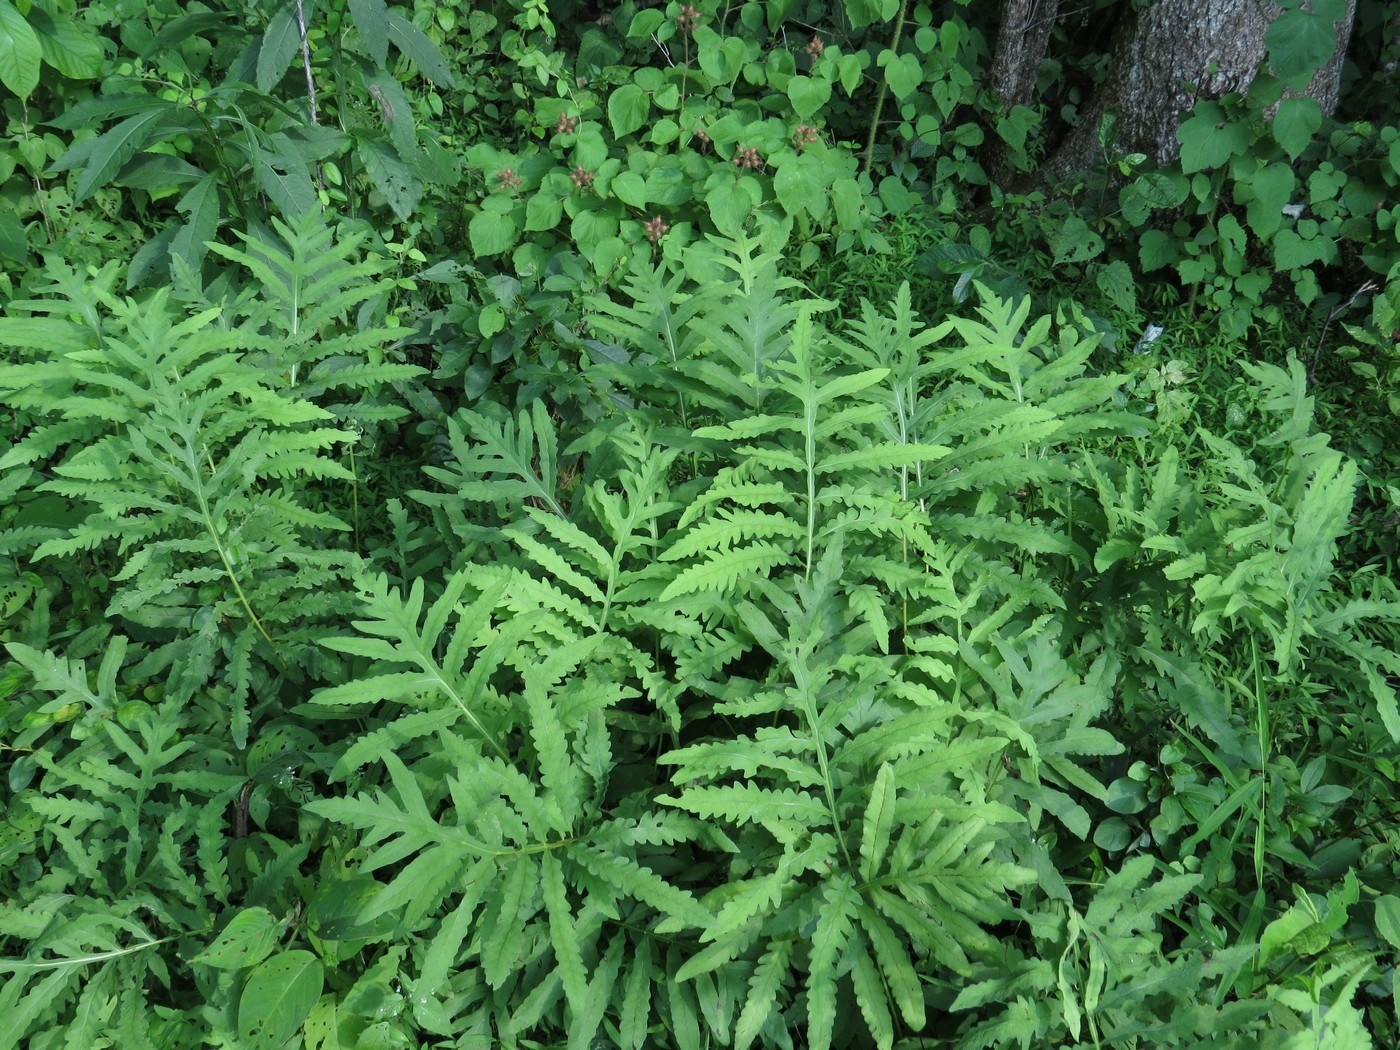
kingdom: Plantae
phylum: Tracheophyta
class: Polypodiopsida
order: Polypodiales
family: Onocleaceae
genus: Onoclea
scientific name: Onoclea sensibilis
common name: Sensitive fern
